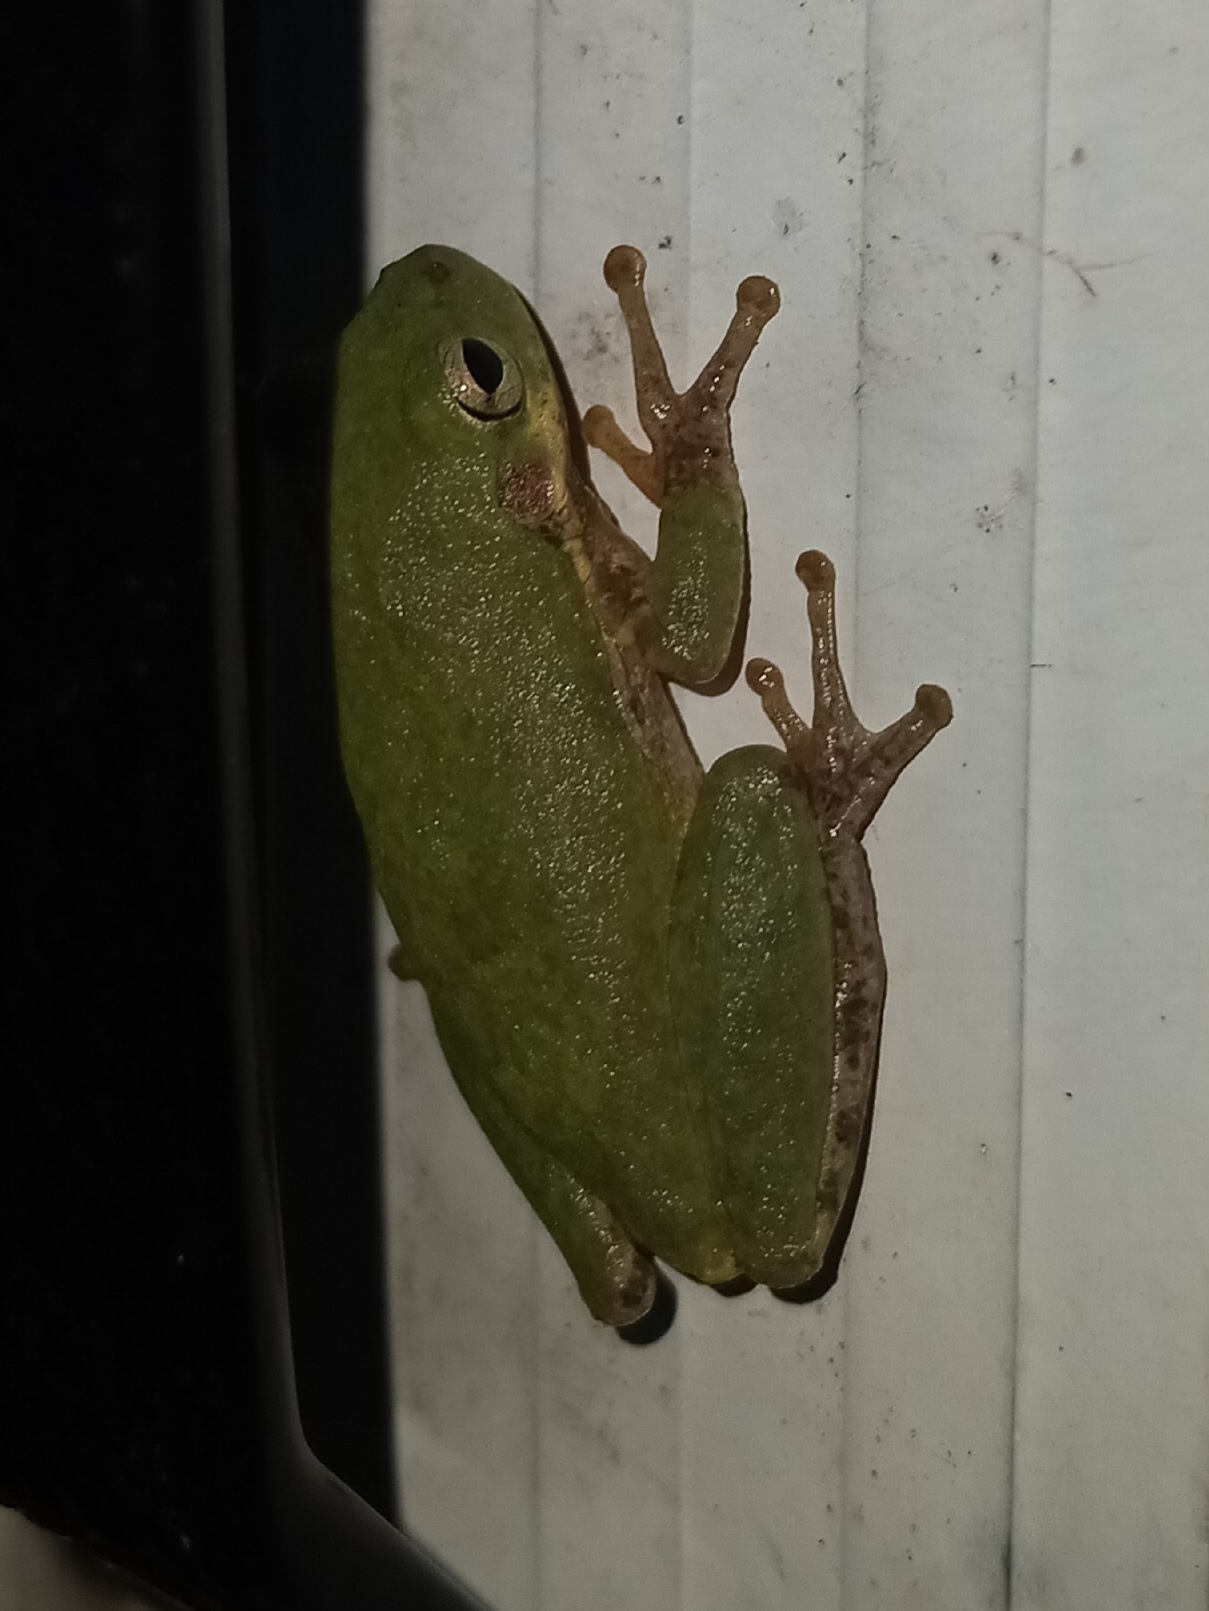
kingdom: Animalia
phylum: Chordata
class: Amphibia
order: Anura
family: Hylidae
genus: Dryophytes
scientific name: Dryophytes squirellus
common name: Squirrel treefrog
